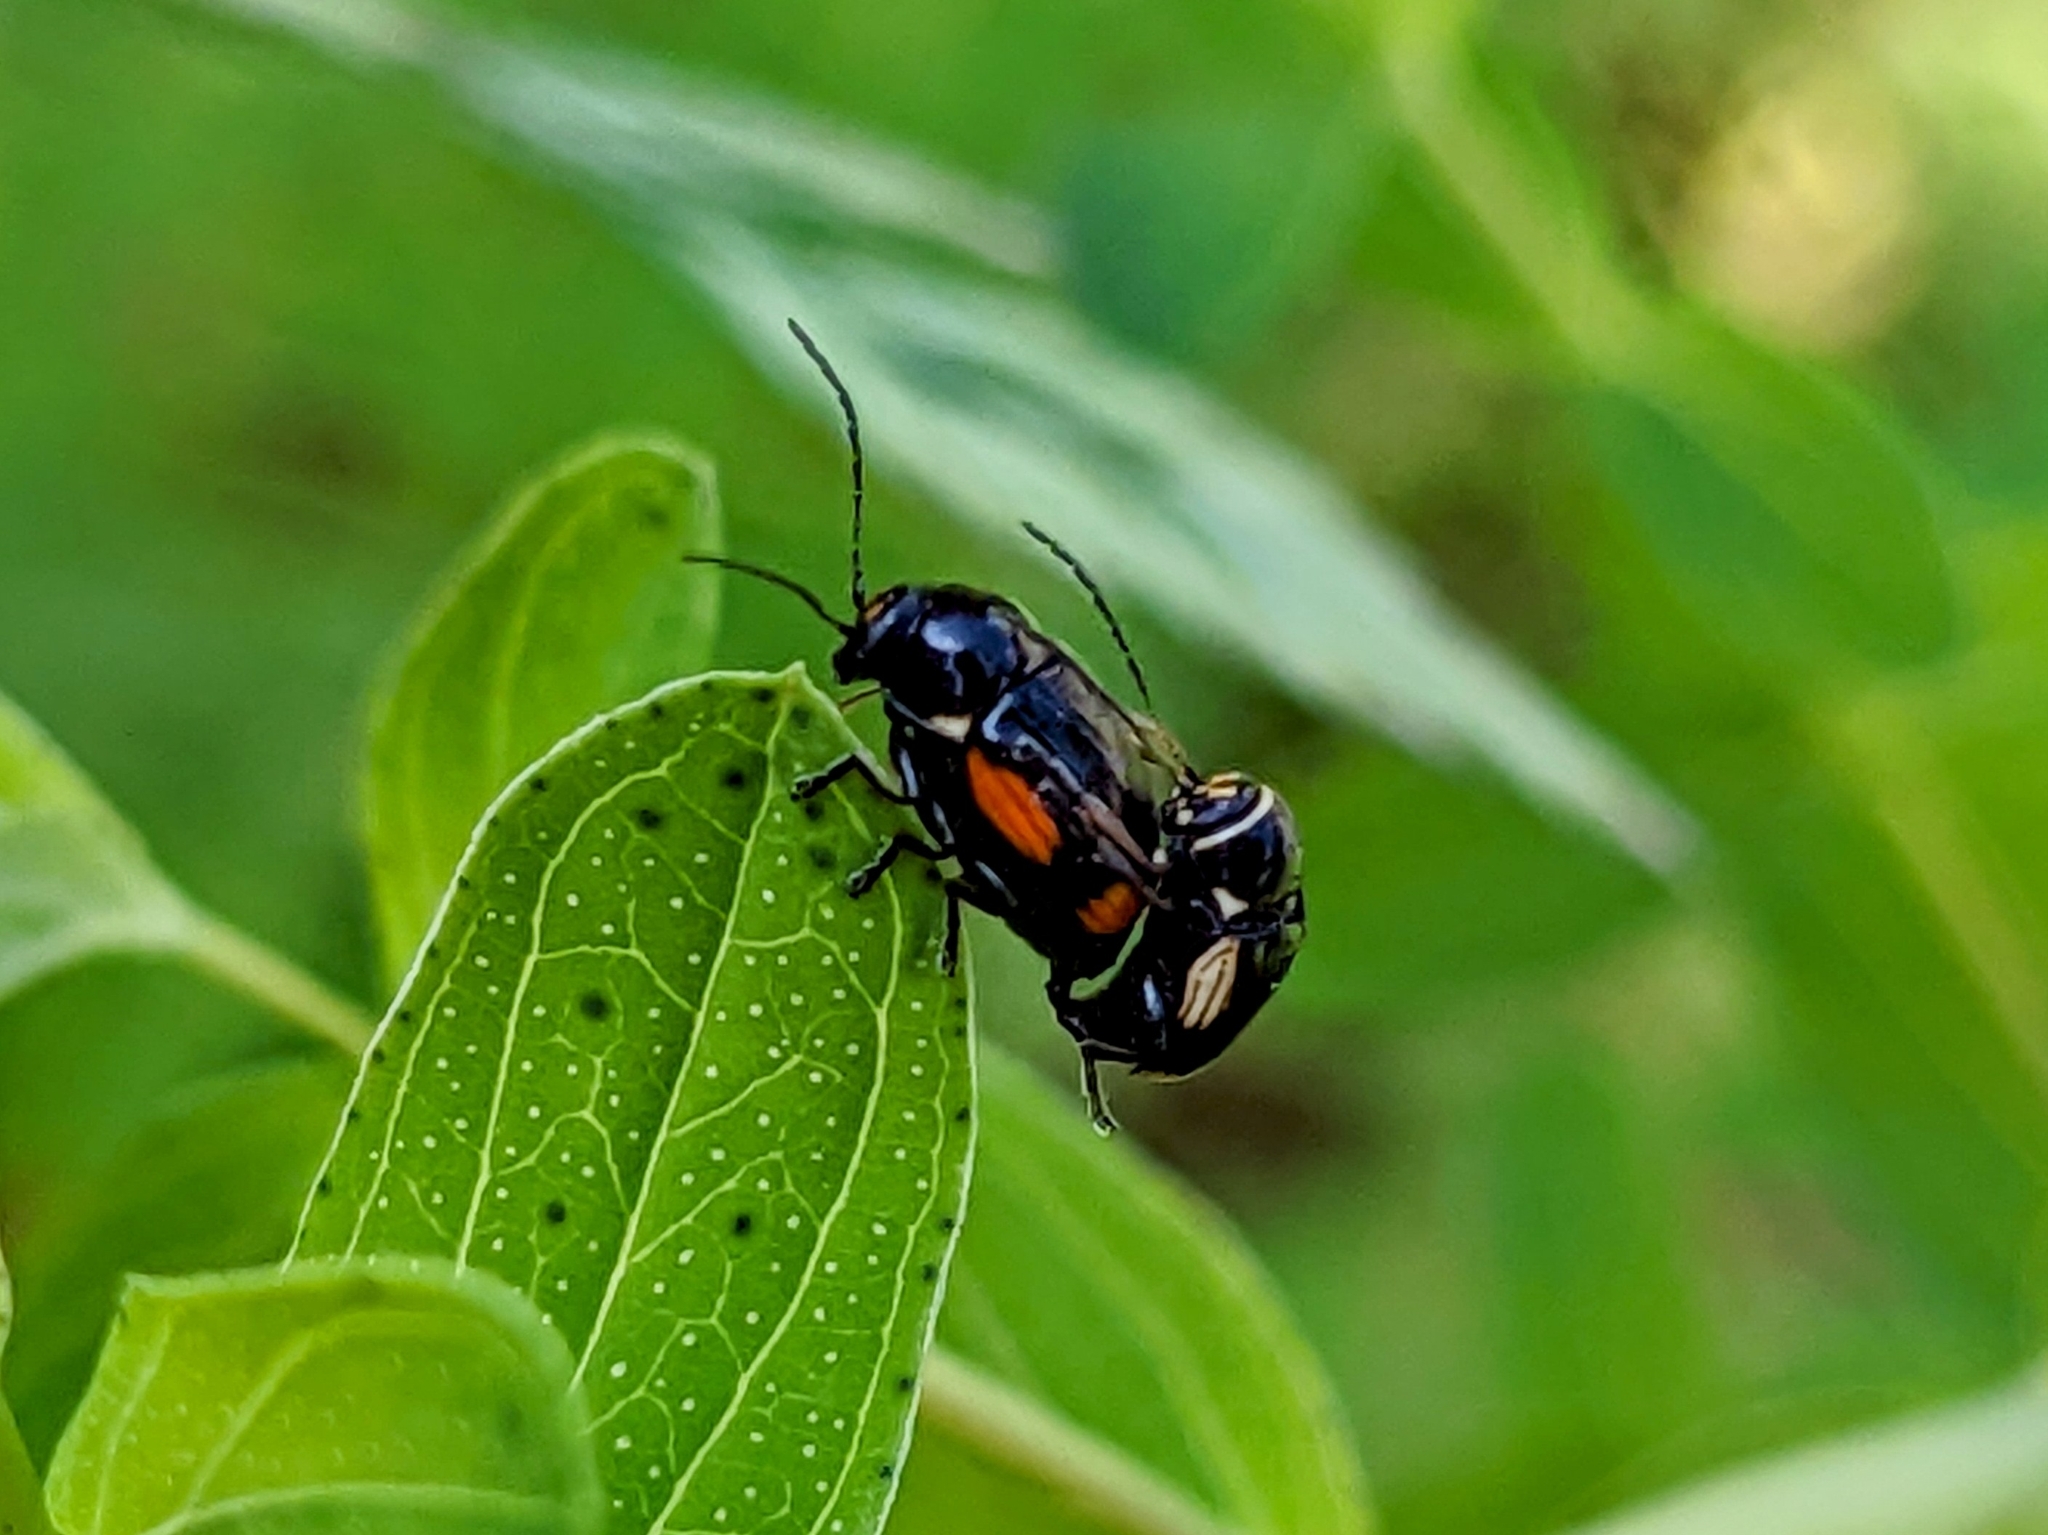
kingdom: Animalia
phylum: Arthropoda
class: Insecta
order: Coleoptera
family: Chrysomelidae
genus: Cryptocephalus
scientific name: Cryptocephalus moraei
